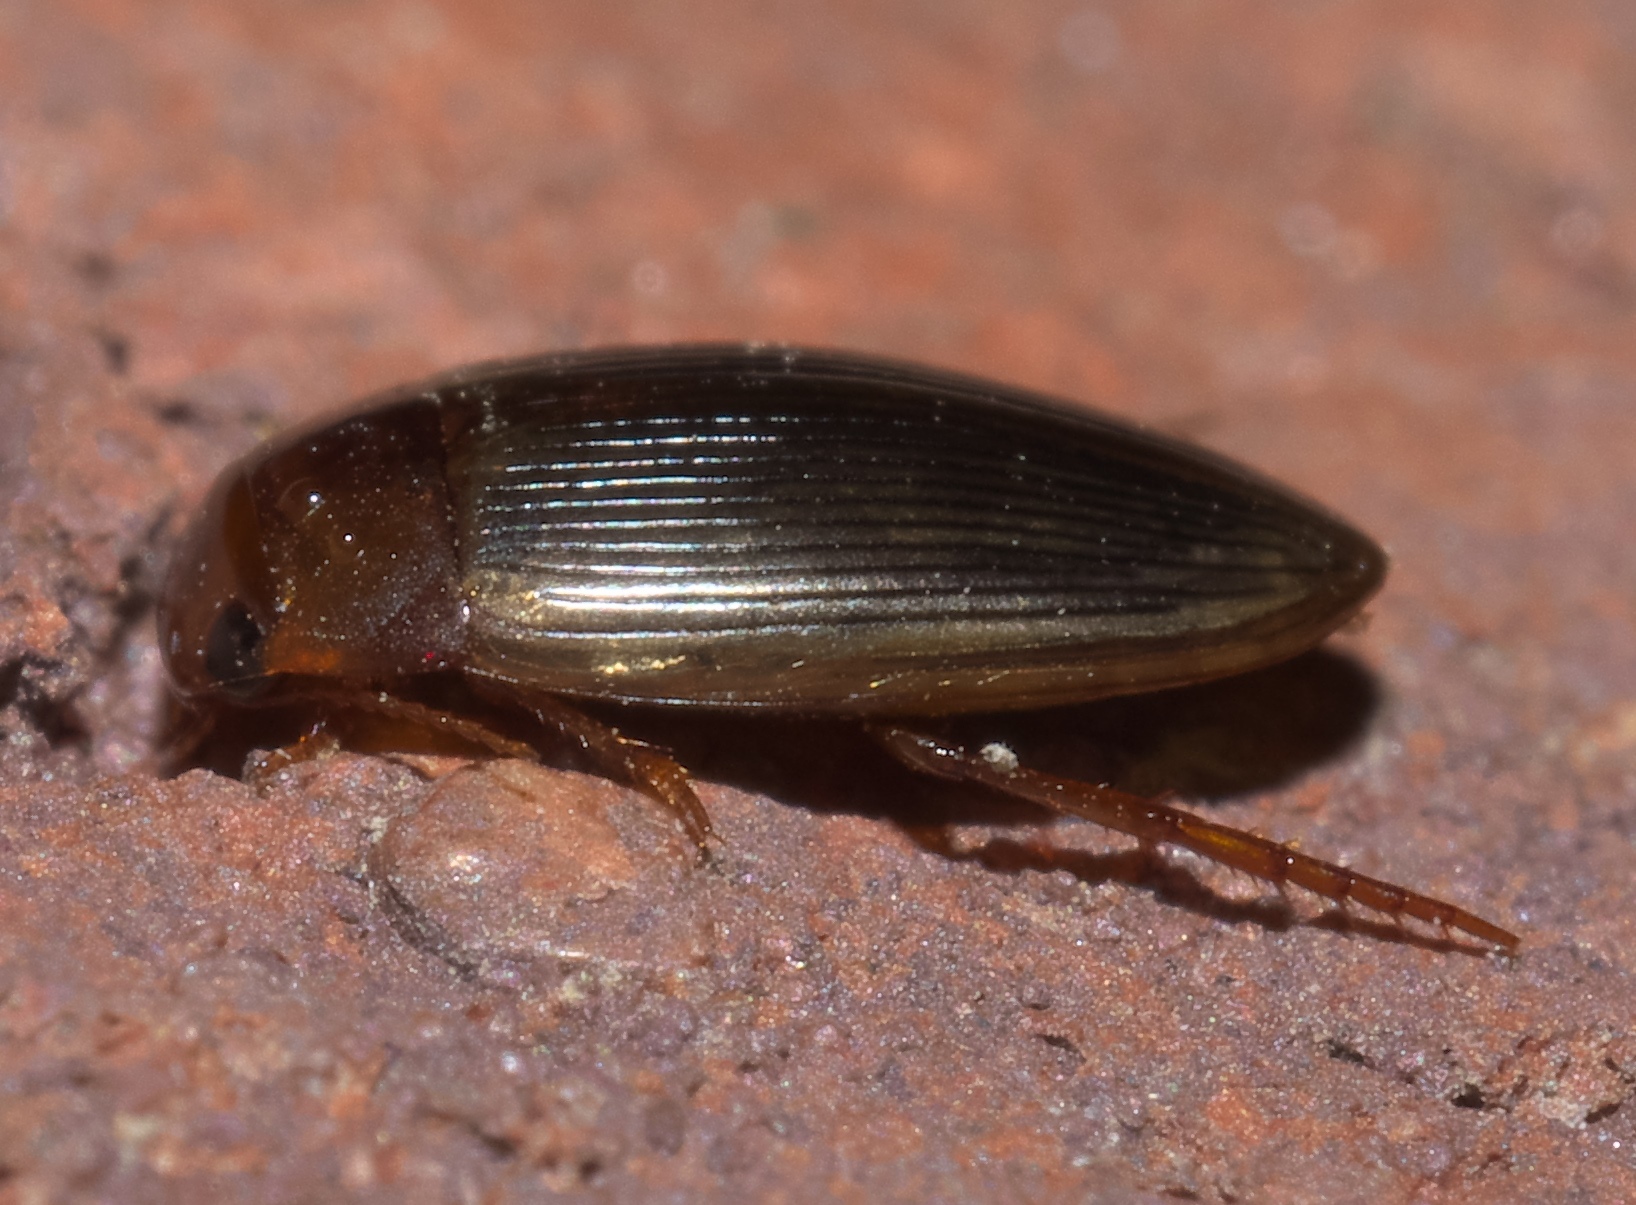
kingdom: Animalia
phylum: Arthropoda
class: Insecta
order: Coleoptera
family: Dytiscidae
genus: Copelatus
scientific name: Copelatus glyphicus
